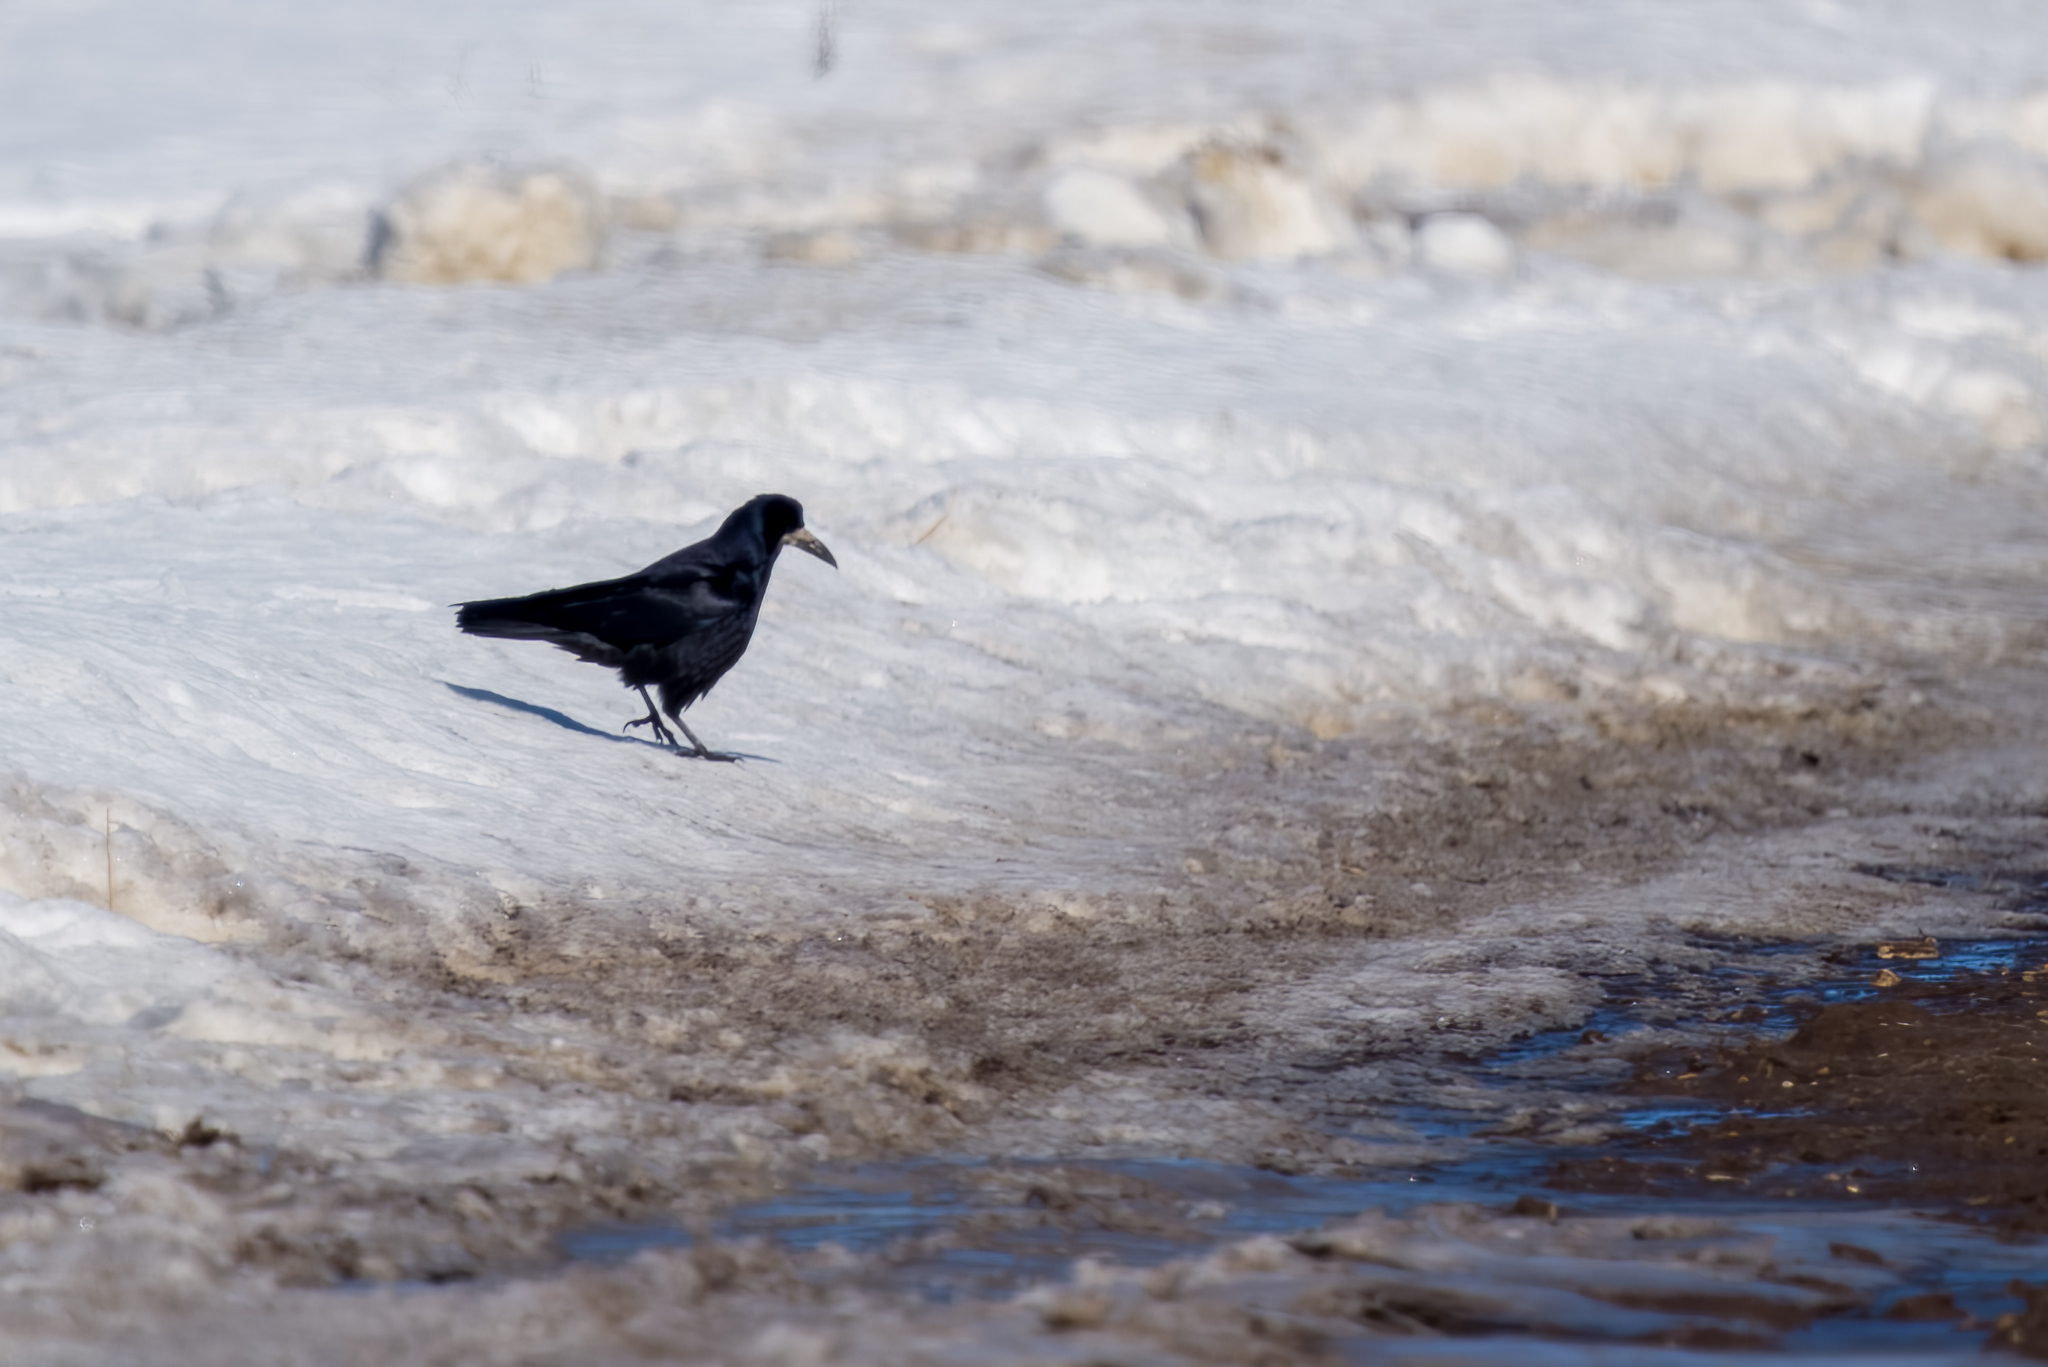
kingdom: Animalia
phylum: Chordata
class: Aves
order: Passeriformes
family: Corvidae
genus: Corvus
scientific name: Corvus frugilegus
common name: Rook
